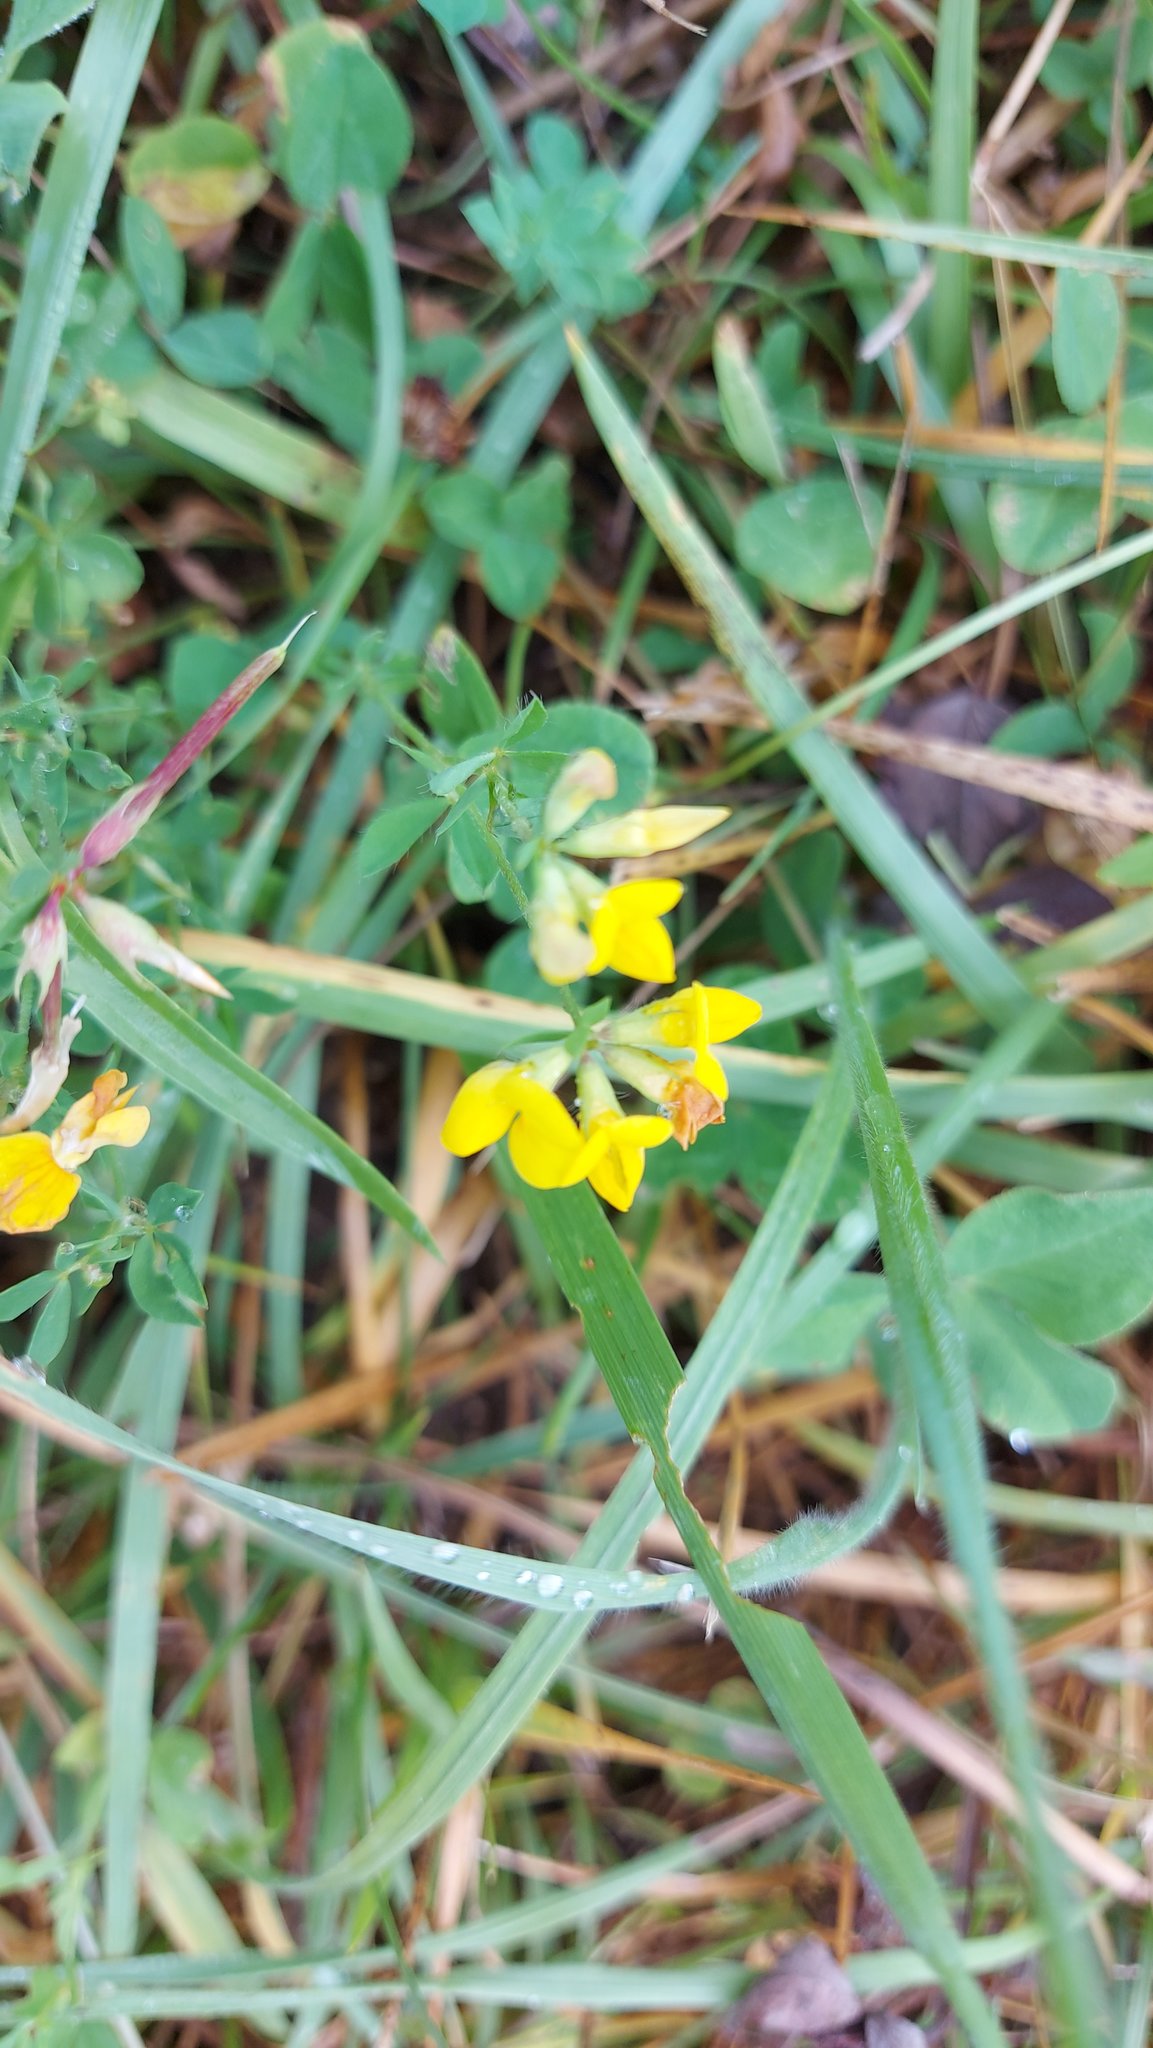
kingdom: Plantae
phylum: Tracheophyta
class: Magnoliopsida
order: Fabales
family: Fabaceae
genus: Lotus
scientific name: Lotus corniculatus
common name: Common bird's-foot-trefoil
